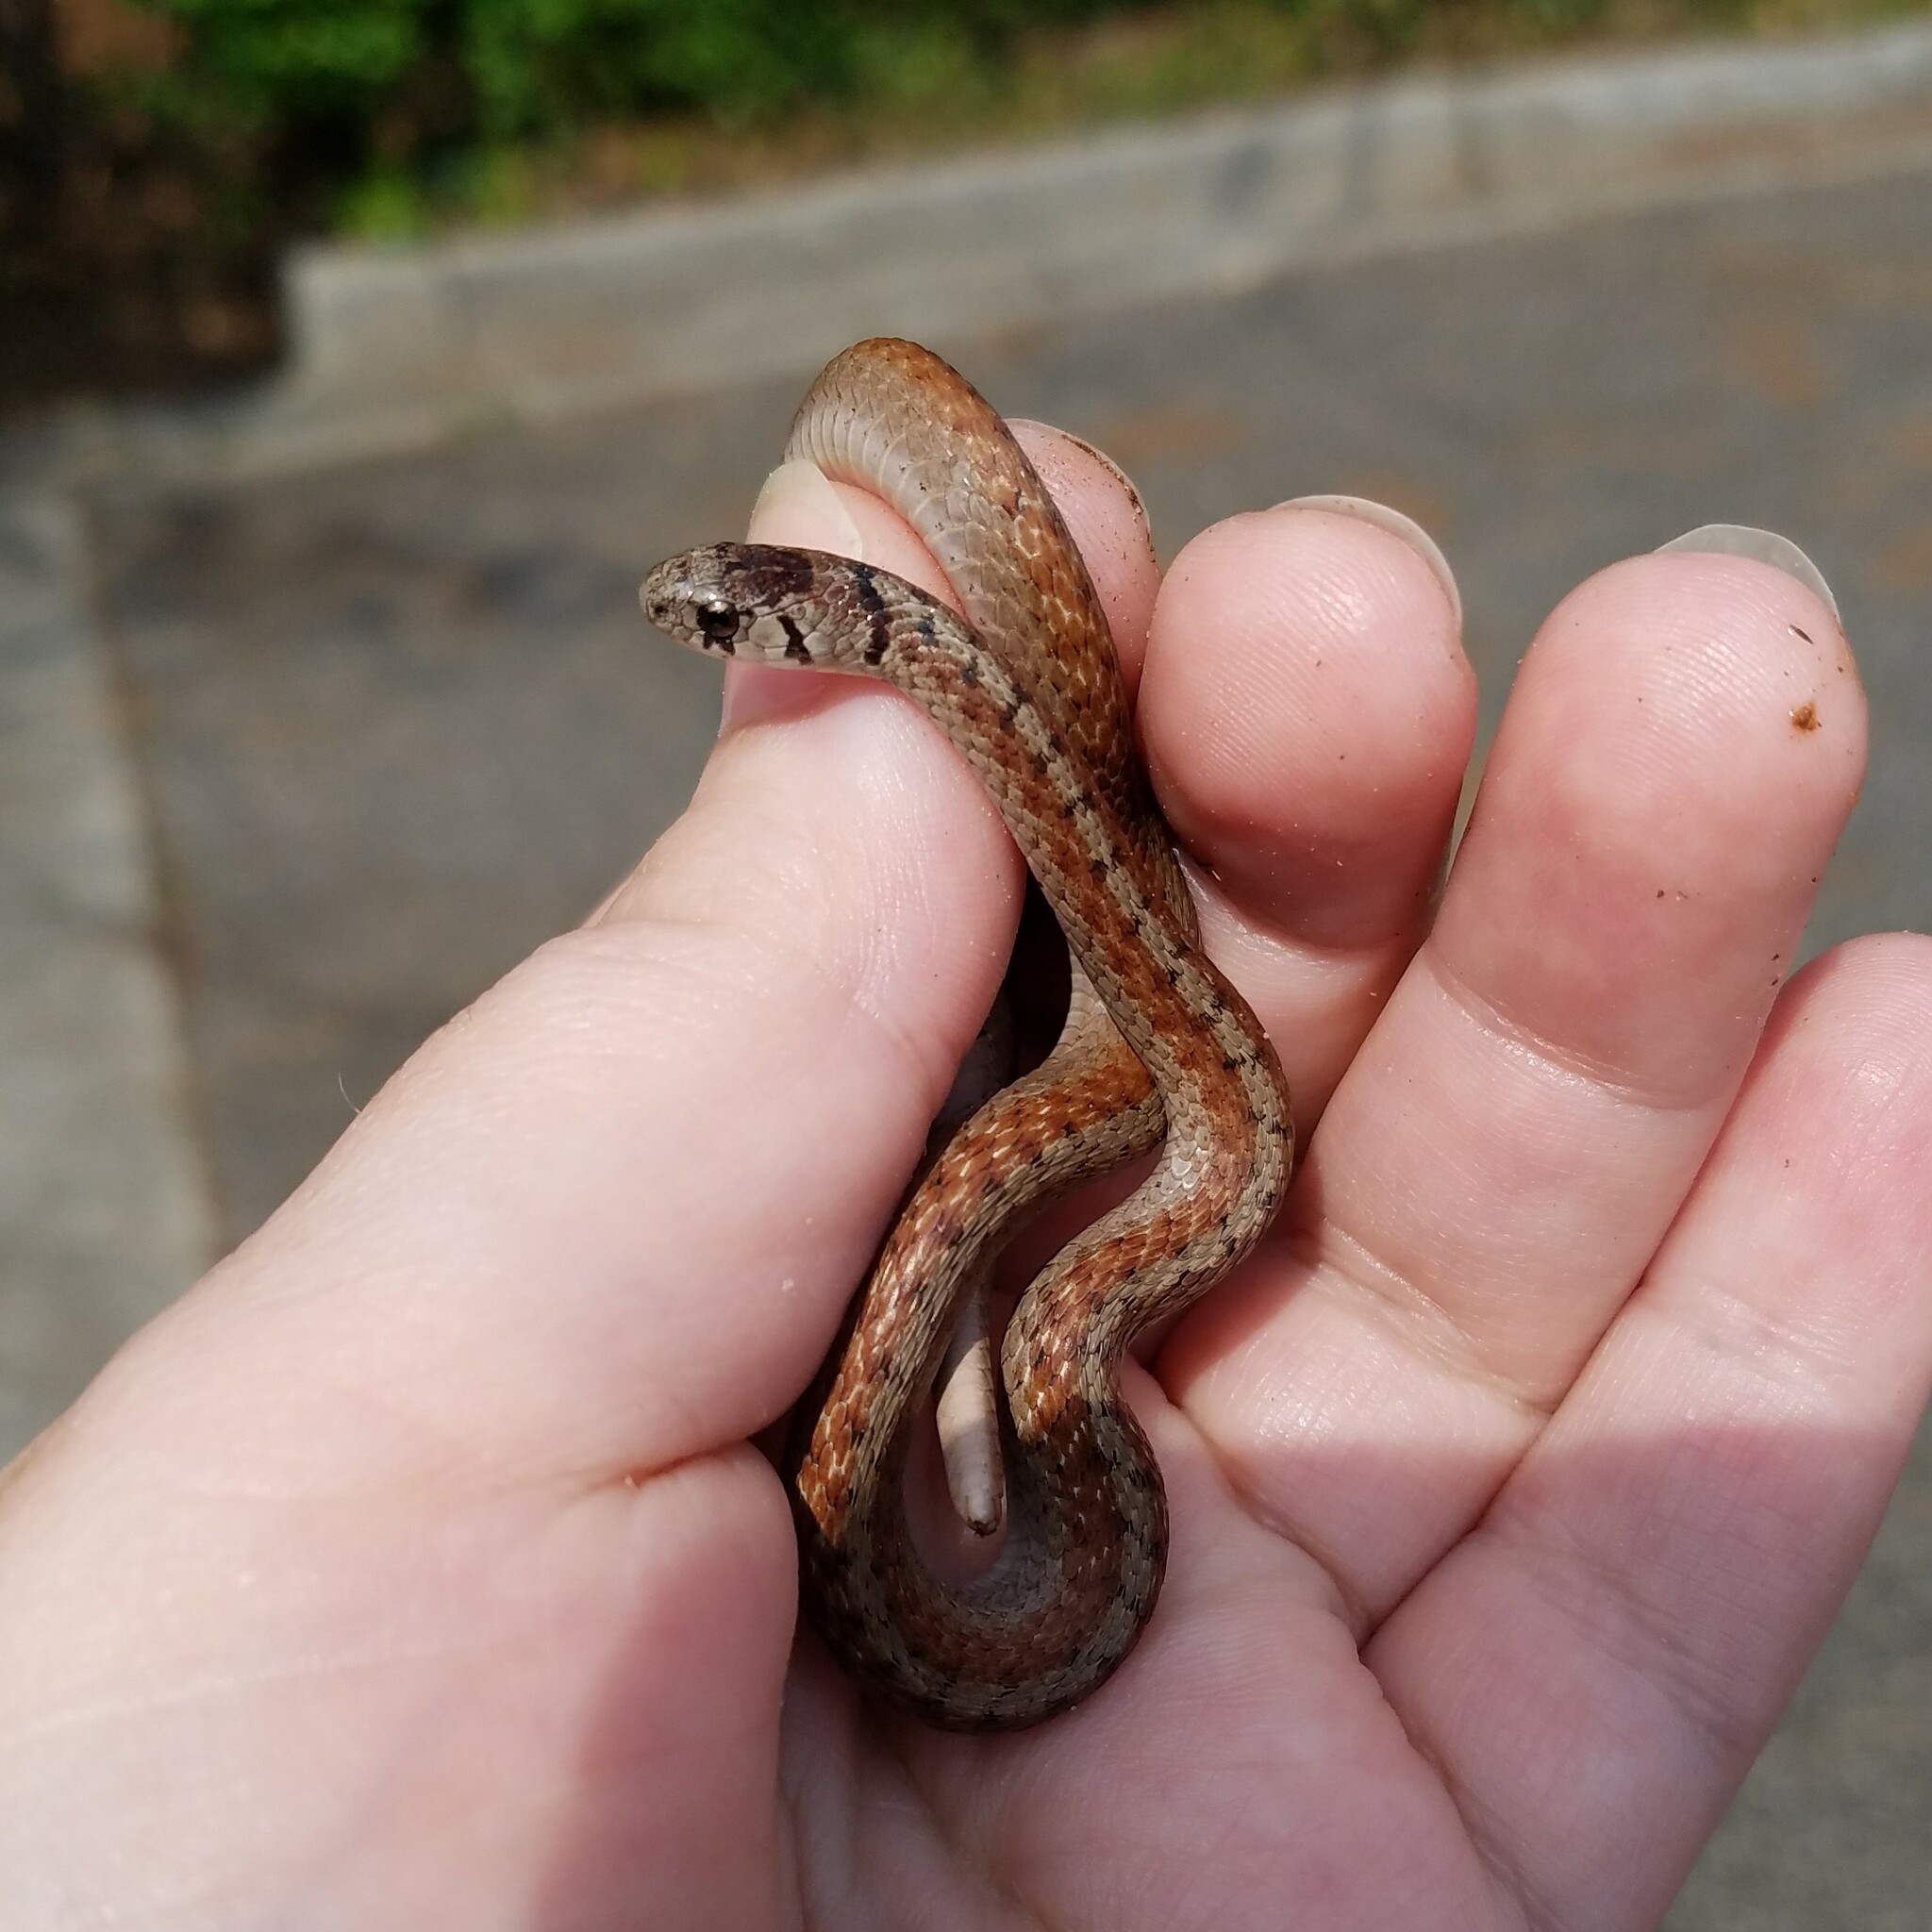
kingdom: Animalia
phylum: Chordata
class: Squamata
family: Colubridae
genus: Storeria
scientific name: Storeria dekayi
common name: (dekay’s) brown snake
